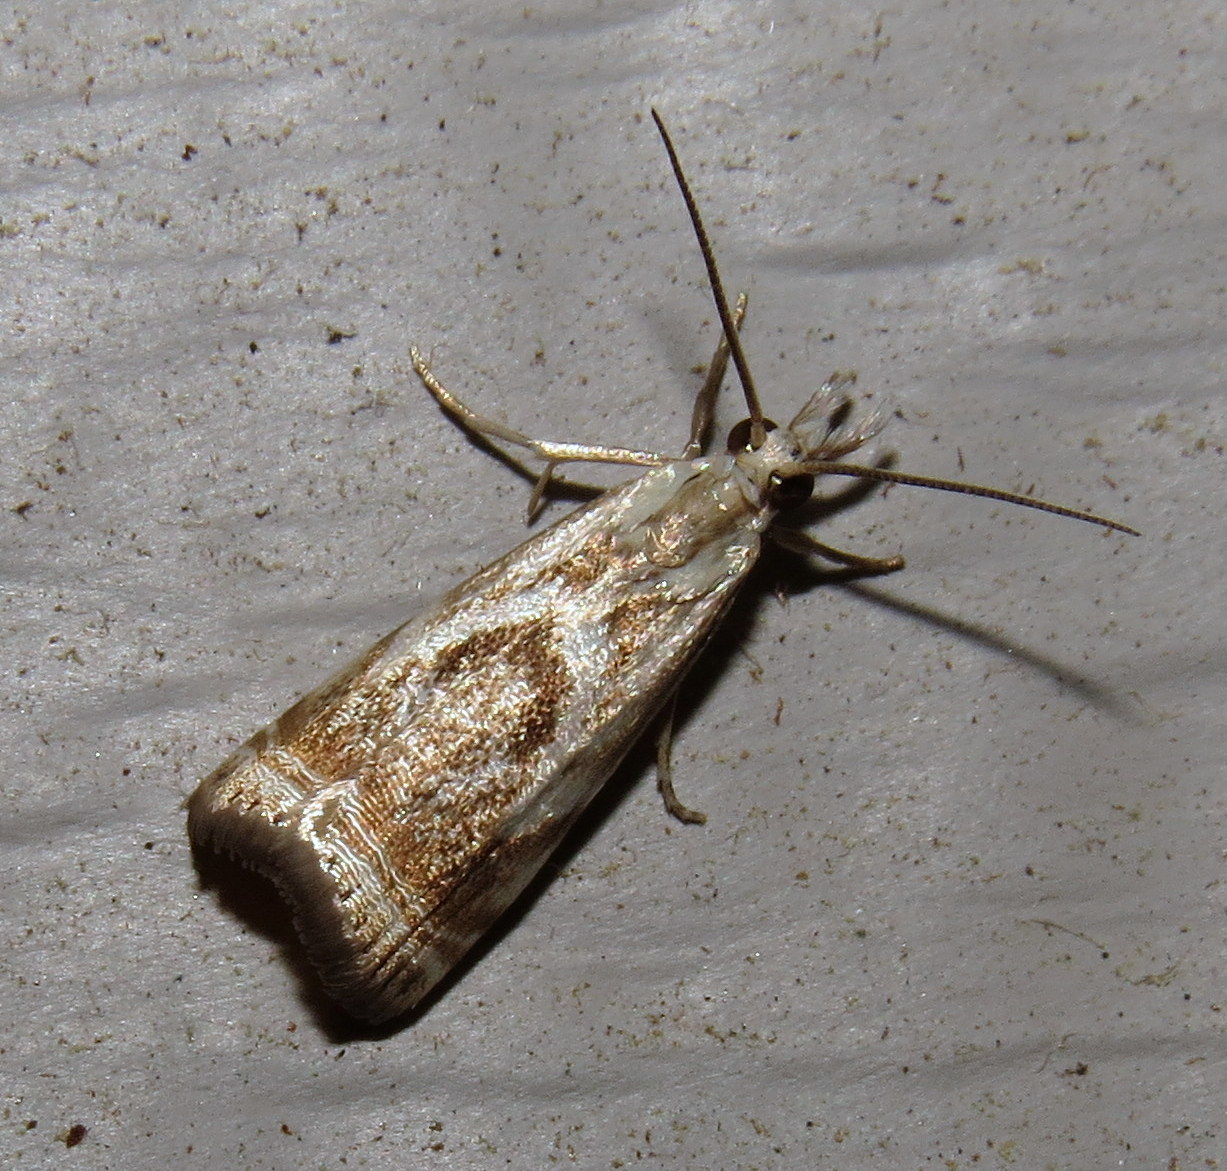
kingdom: Animalia
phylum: Arthropoda
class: Insecta
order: Lepidoptera
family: Crambidae
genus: Microcrambus
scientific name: Microcrambus elegans
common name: Elegant grass-veneer
